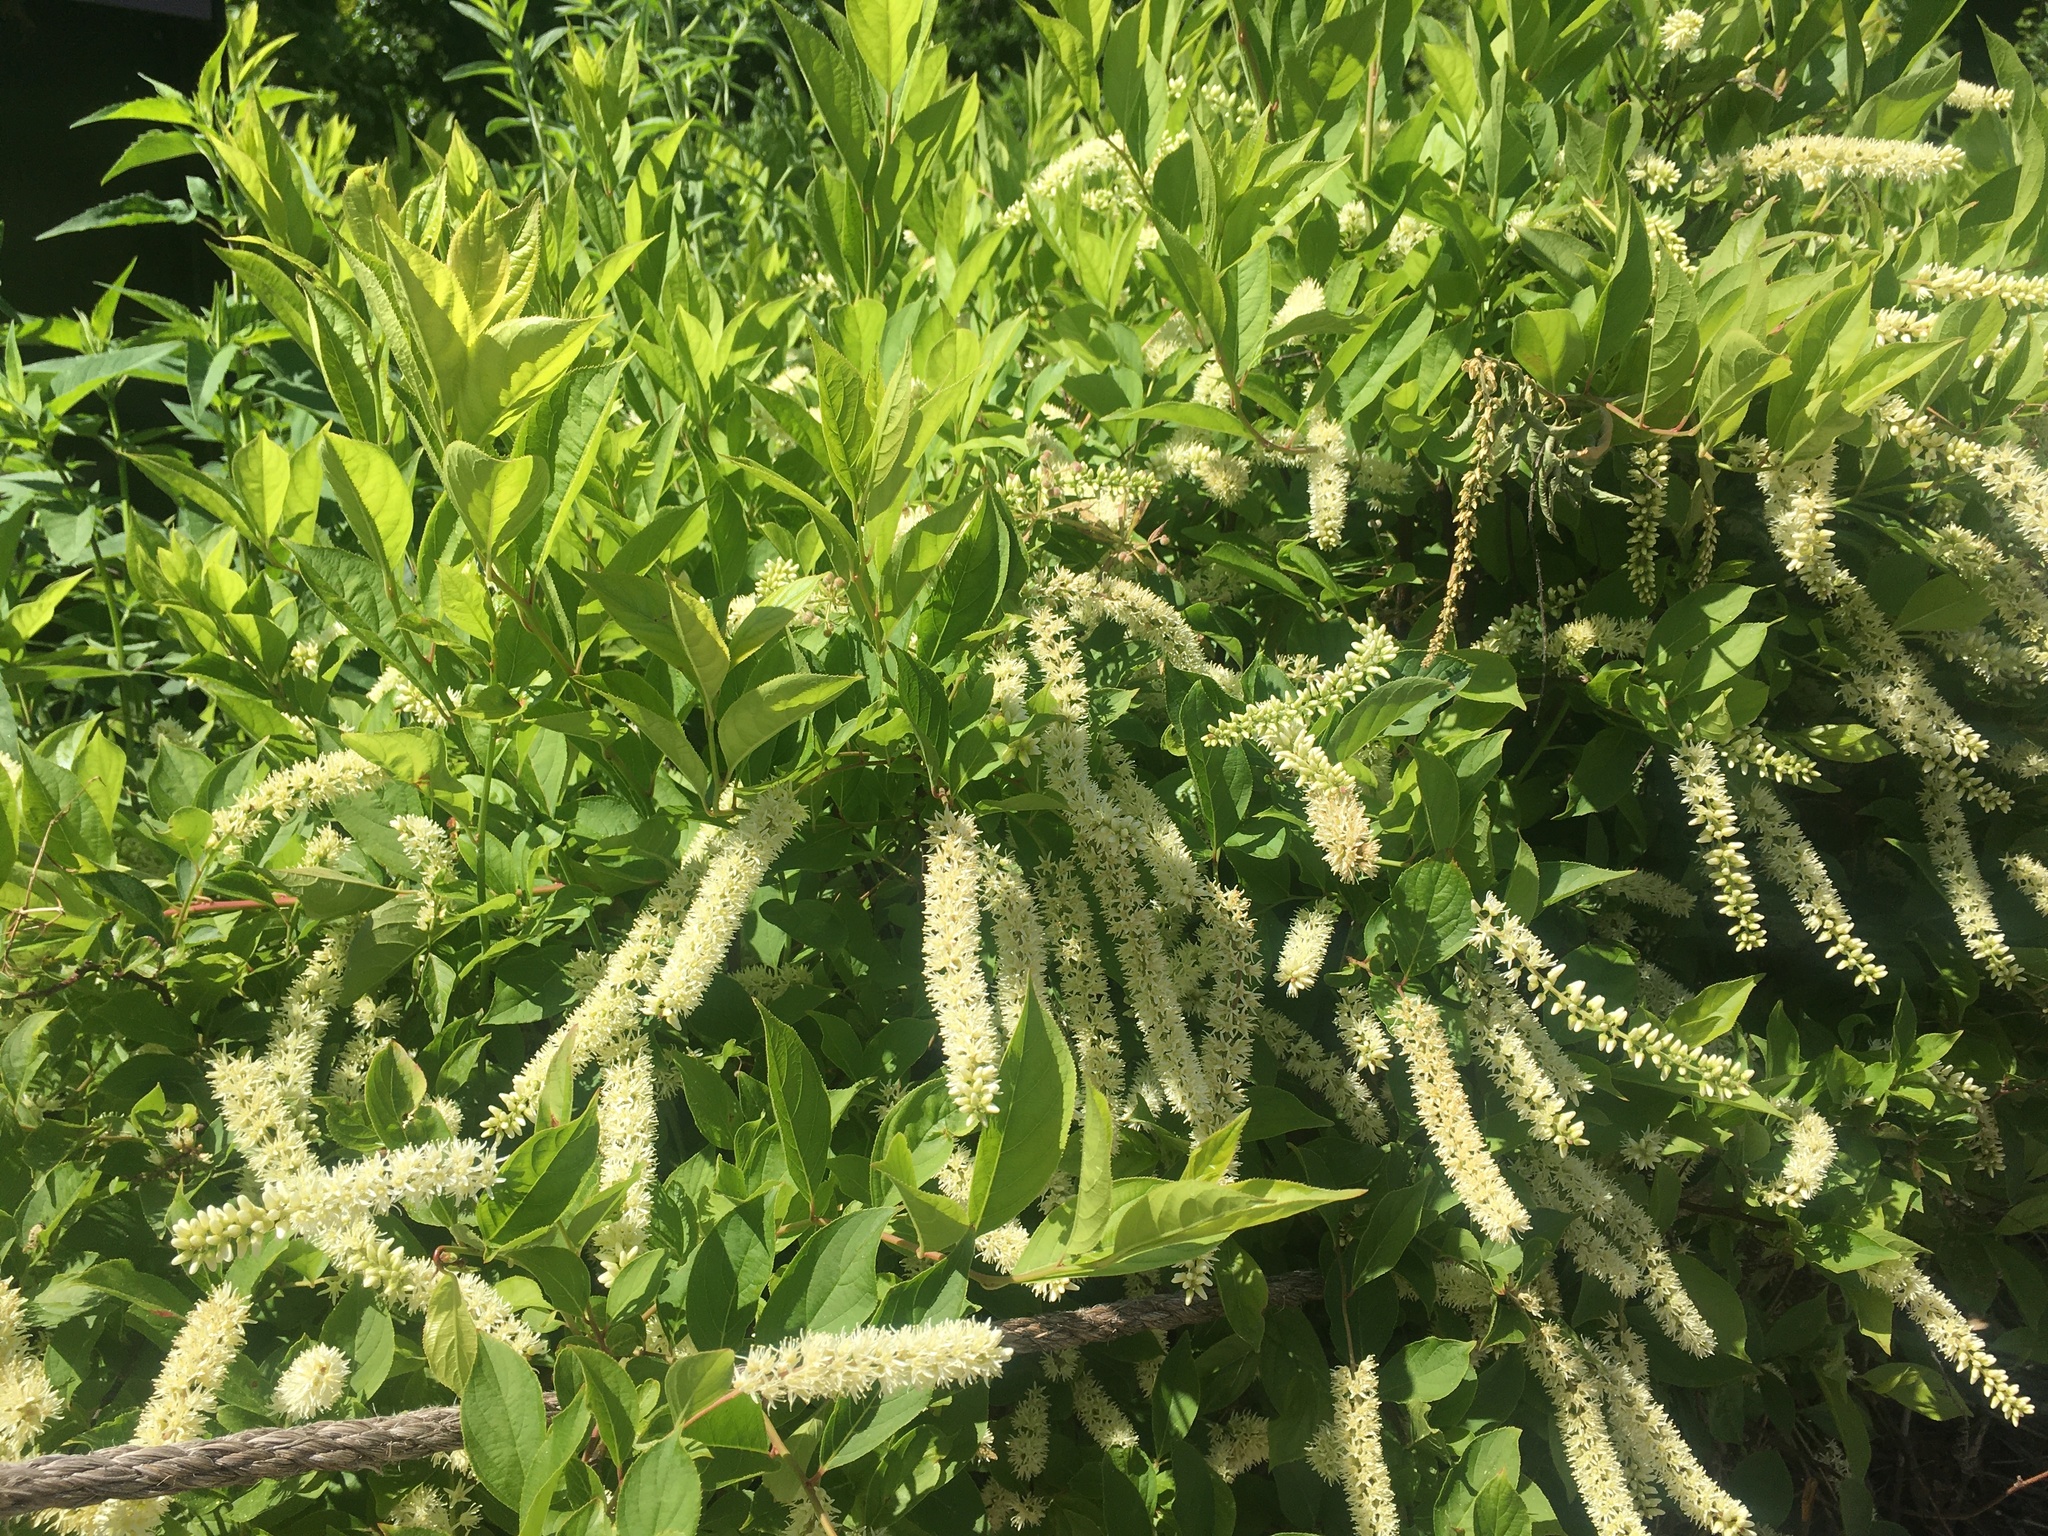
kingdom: Plantae
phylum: Tracheophyta
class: Magnoliopsida
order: Saxifragales
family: Iteaceae
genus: Itea
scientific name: Itea virginica
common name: Sweetspire
